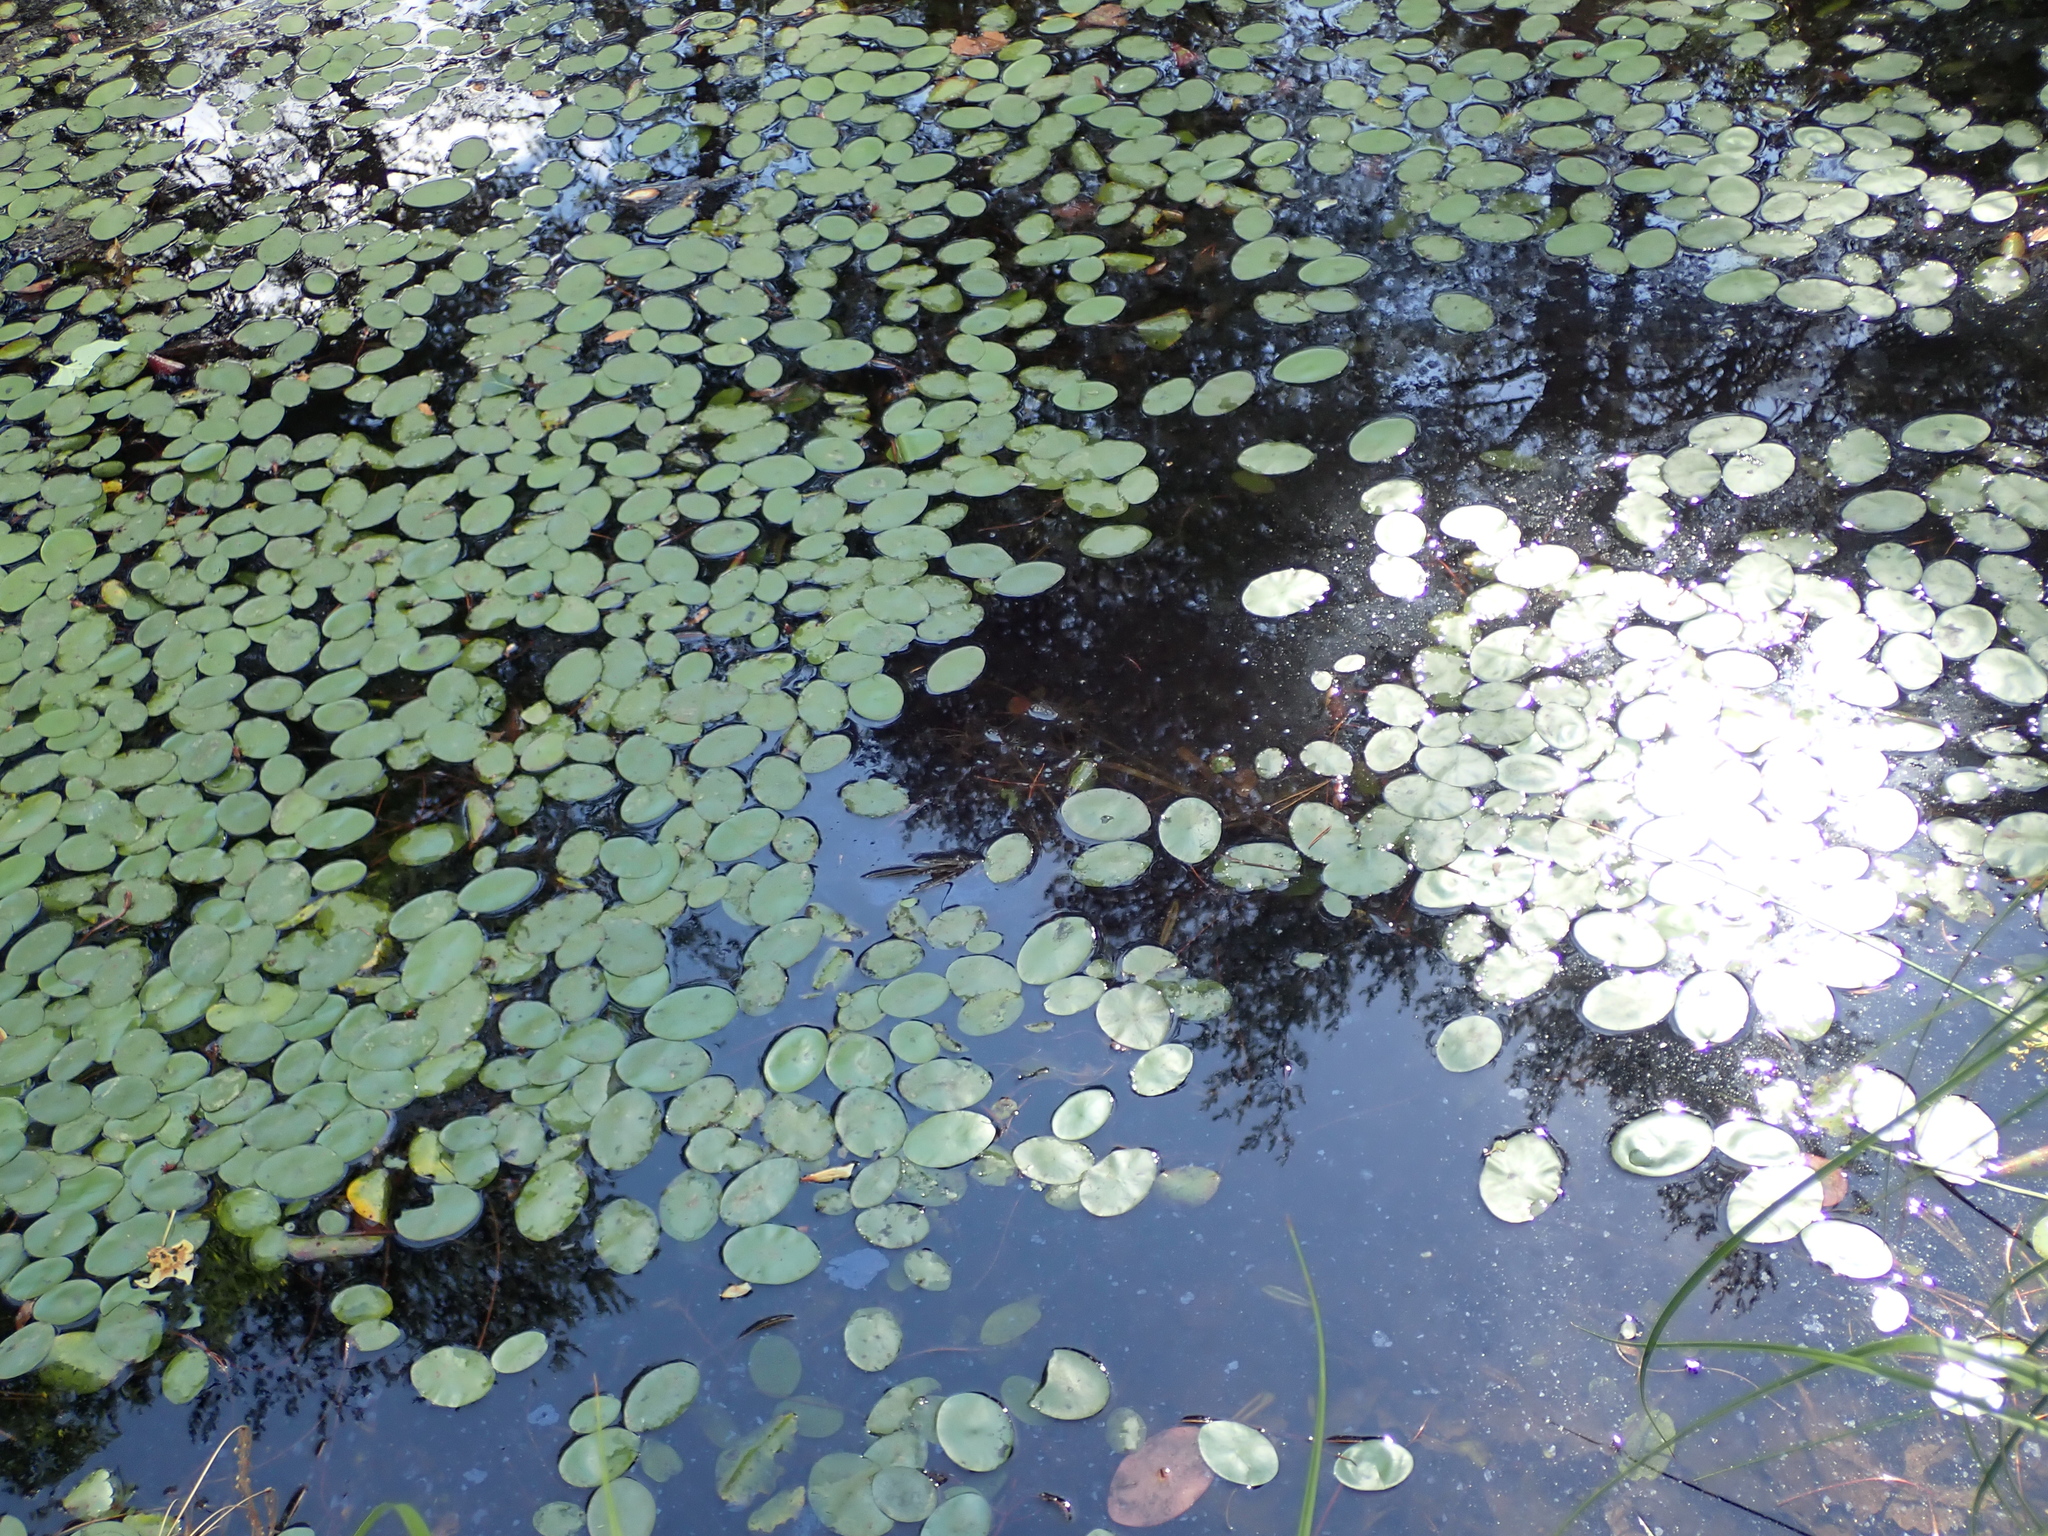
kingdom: Plantae
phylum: Tracheophyta
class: Magnoliopsida
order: Nymphaeales
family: Cabombaceae
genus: Brasenia
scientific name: Brasenia schreberi
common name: Water-shield
